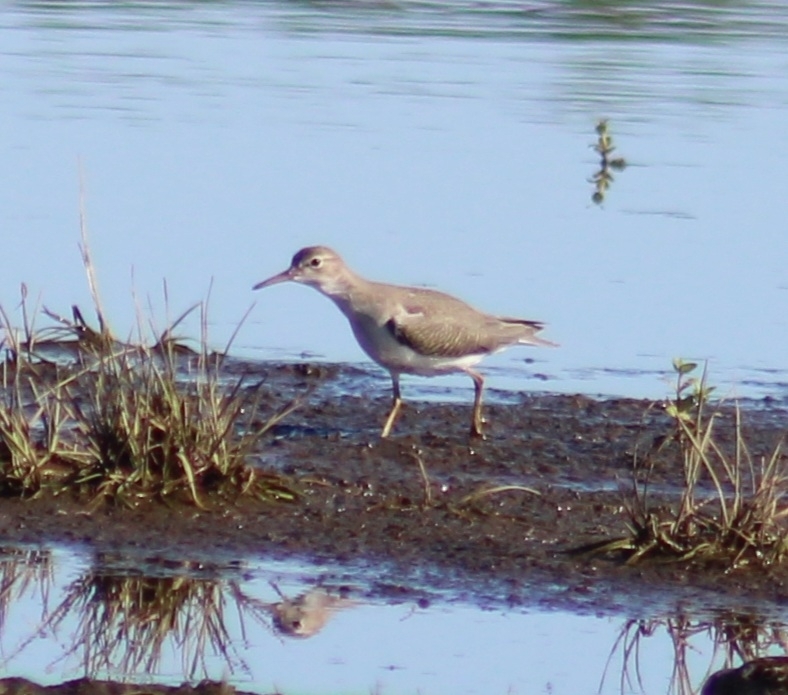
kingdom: Animalia
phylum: Chordata
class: Aves
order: Charadriiformes
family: Scolopacidae
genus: Actitis
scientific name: Actitis macularius
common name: Spotted sandpiper
